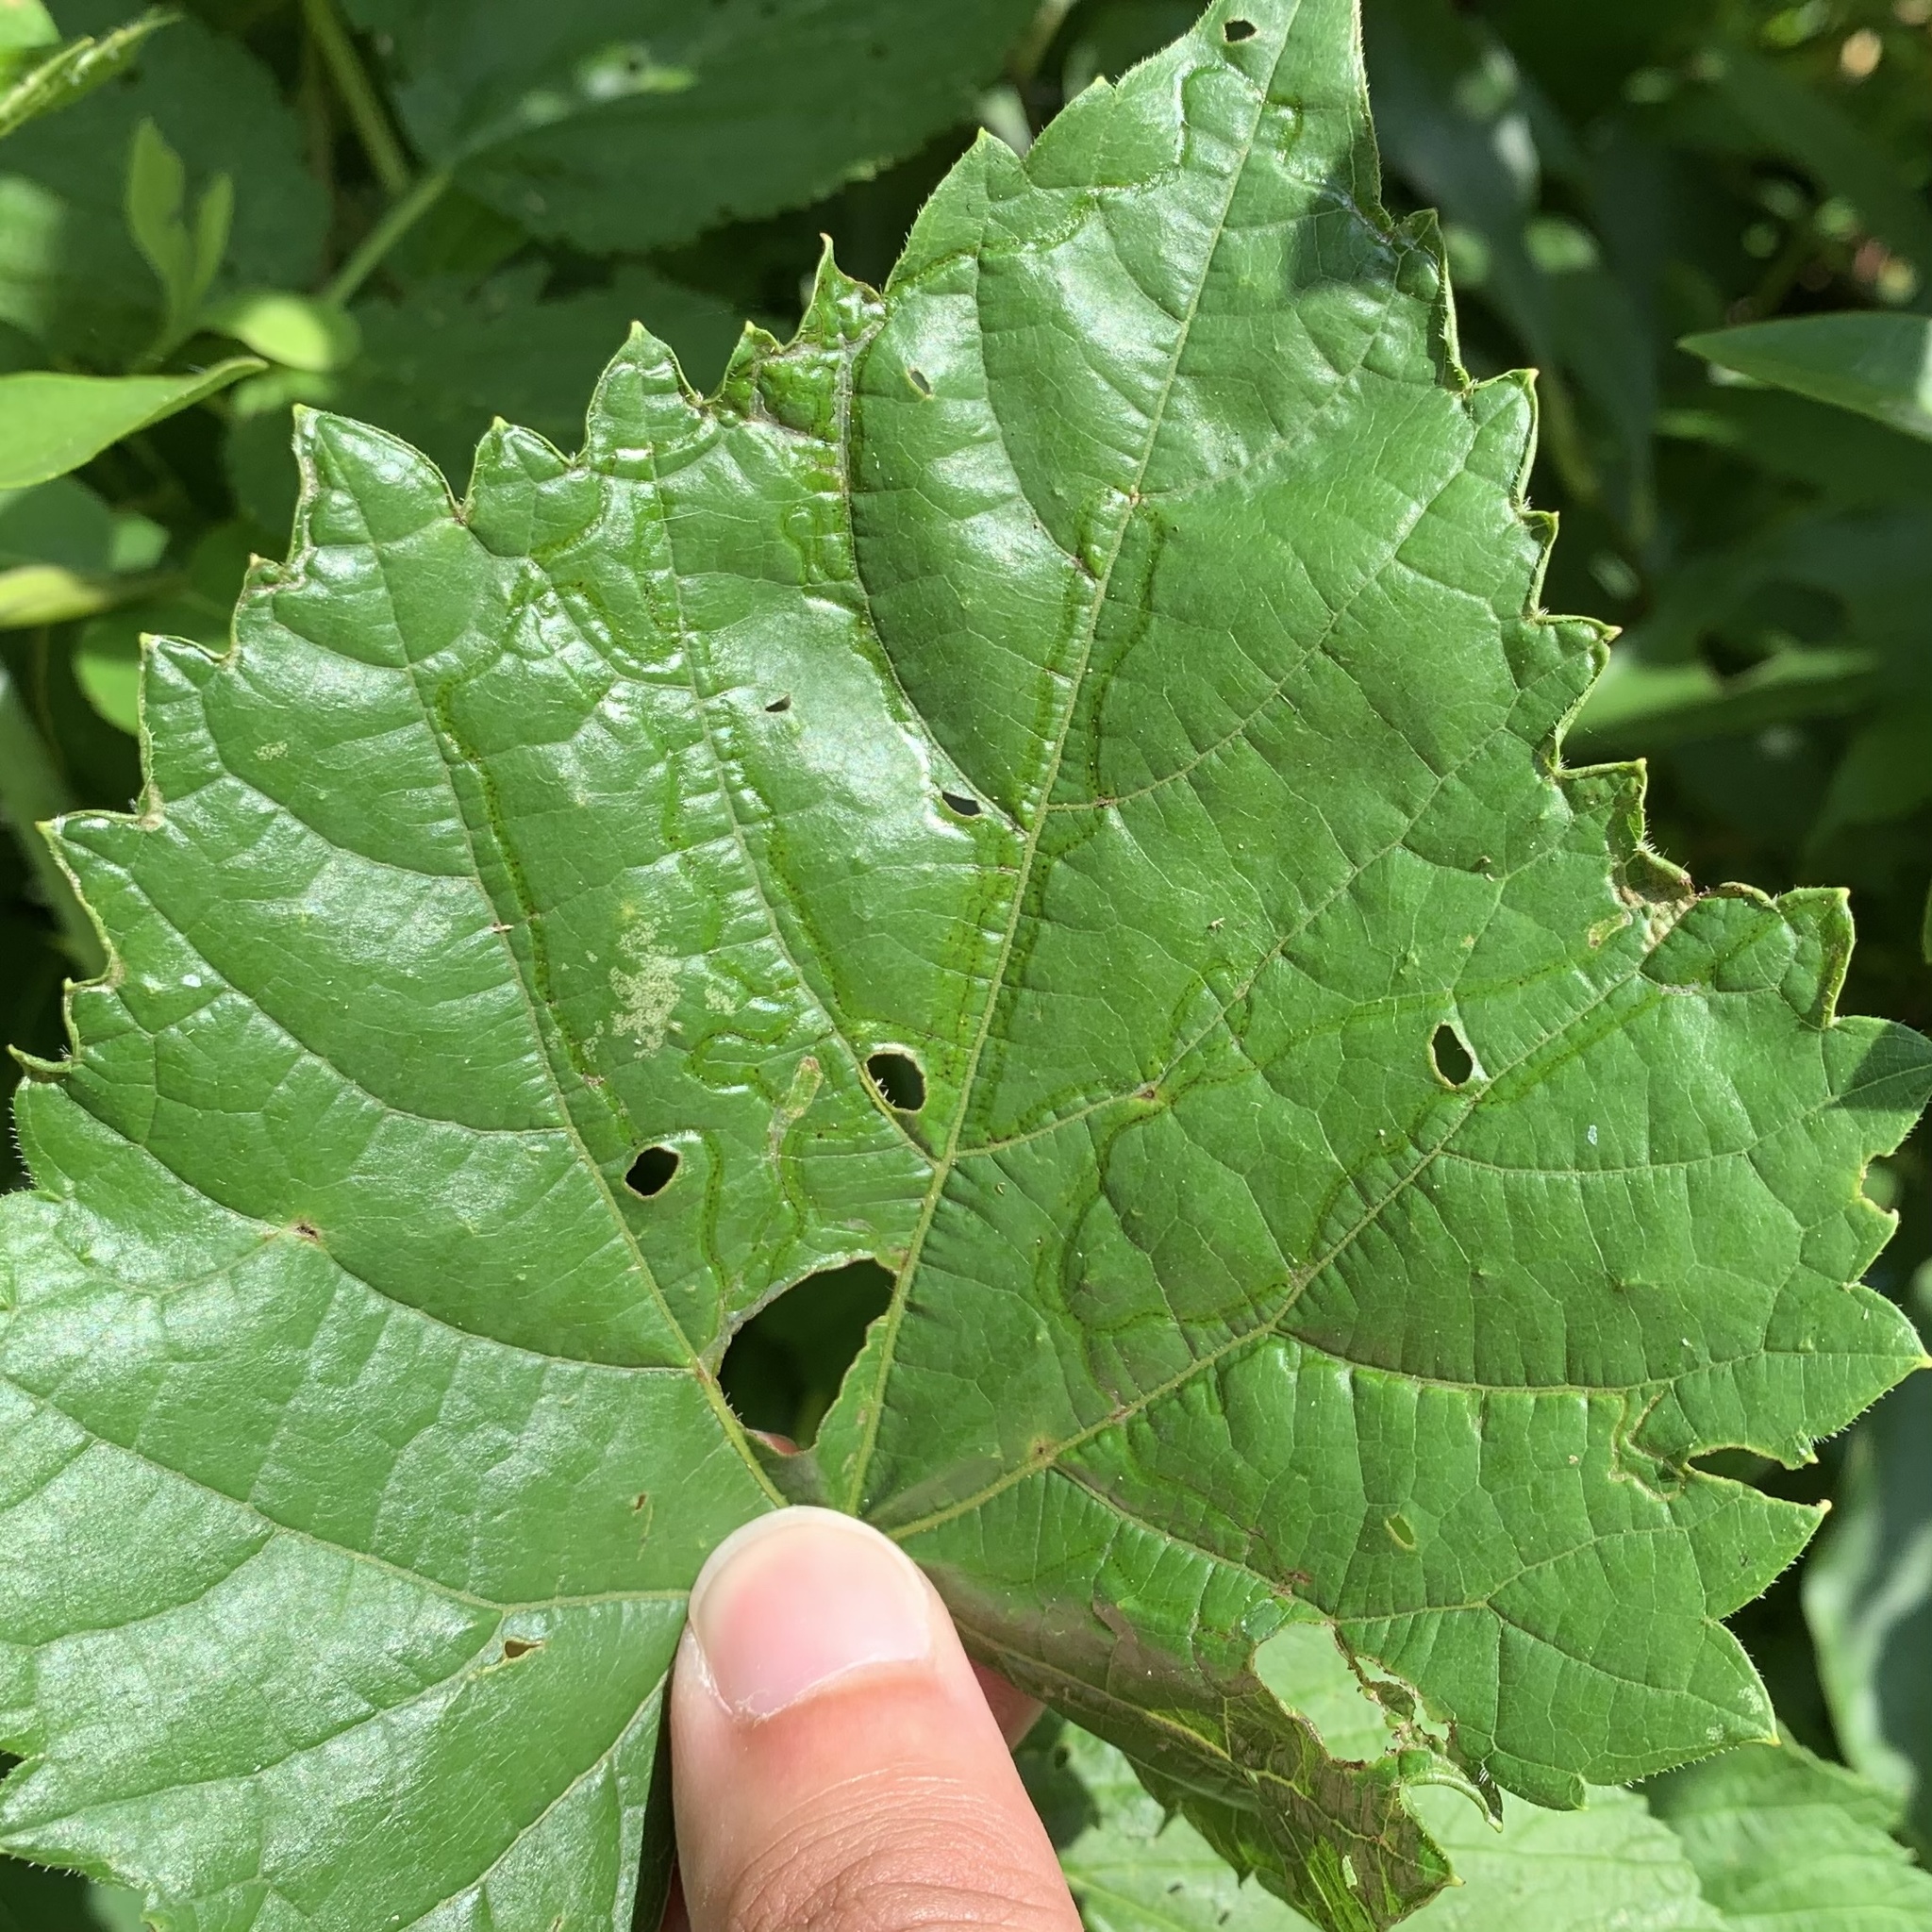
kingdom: Animalia
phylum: Arthropoda
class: Insecta
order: Lepidoptera
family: Gracillariidae
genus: Phyllocnistis
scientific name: Phyllocnistis vitegenella
